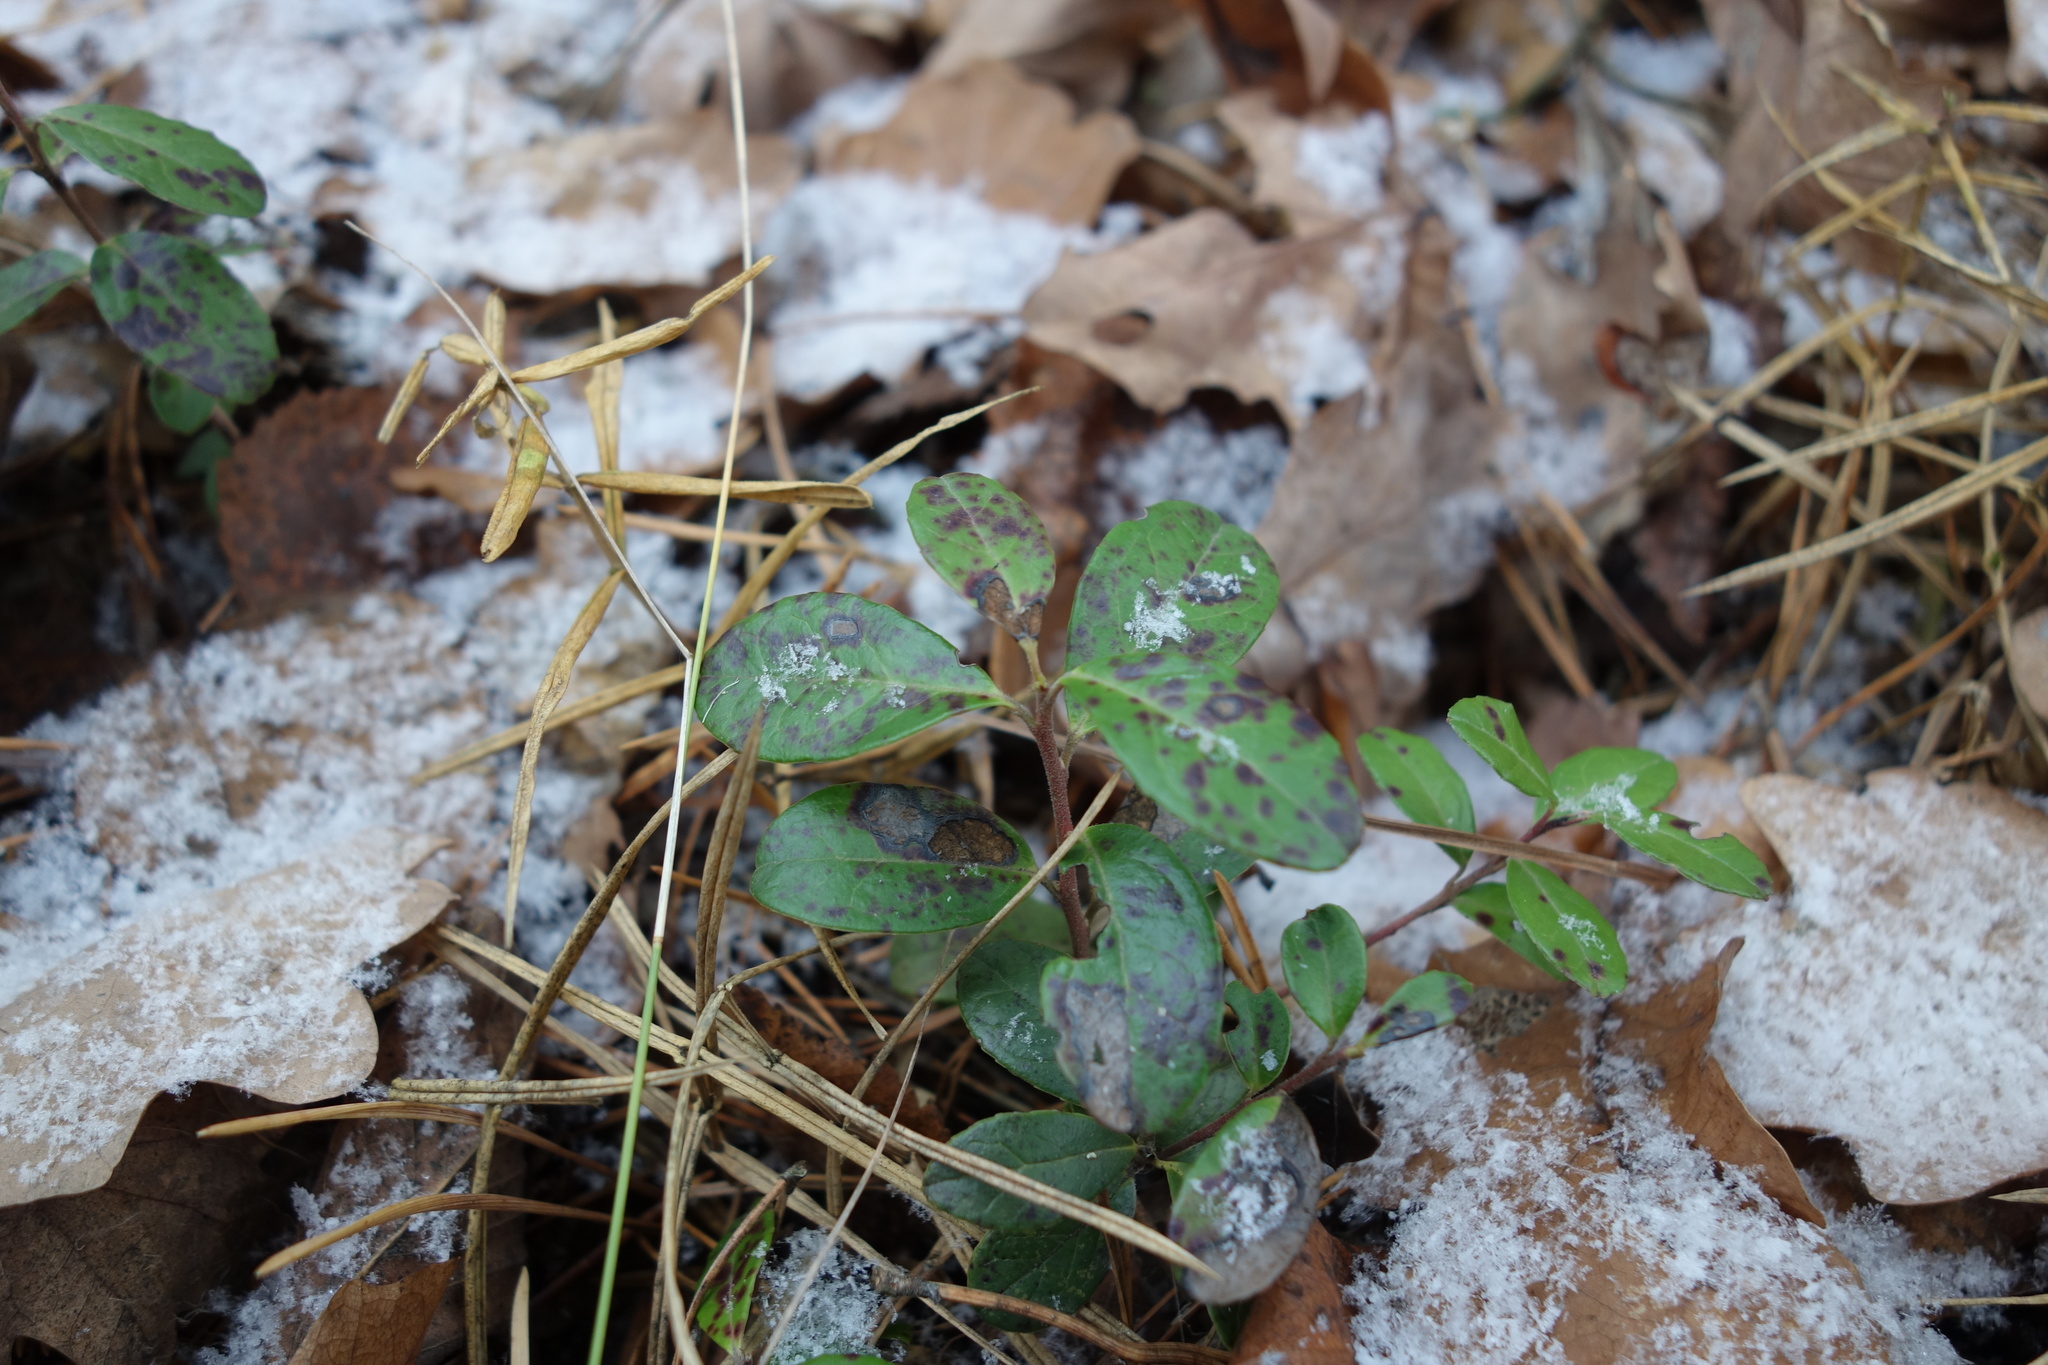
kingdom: Plantae
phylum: Tracheophyta
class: Magnoliopsida
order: Ericales
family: Ericaceae
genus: Vaccinium
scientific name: Vaccinium vitis-idaea
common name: Cowberry
